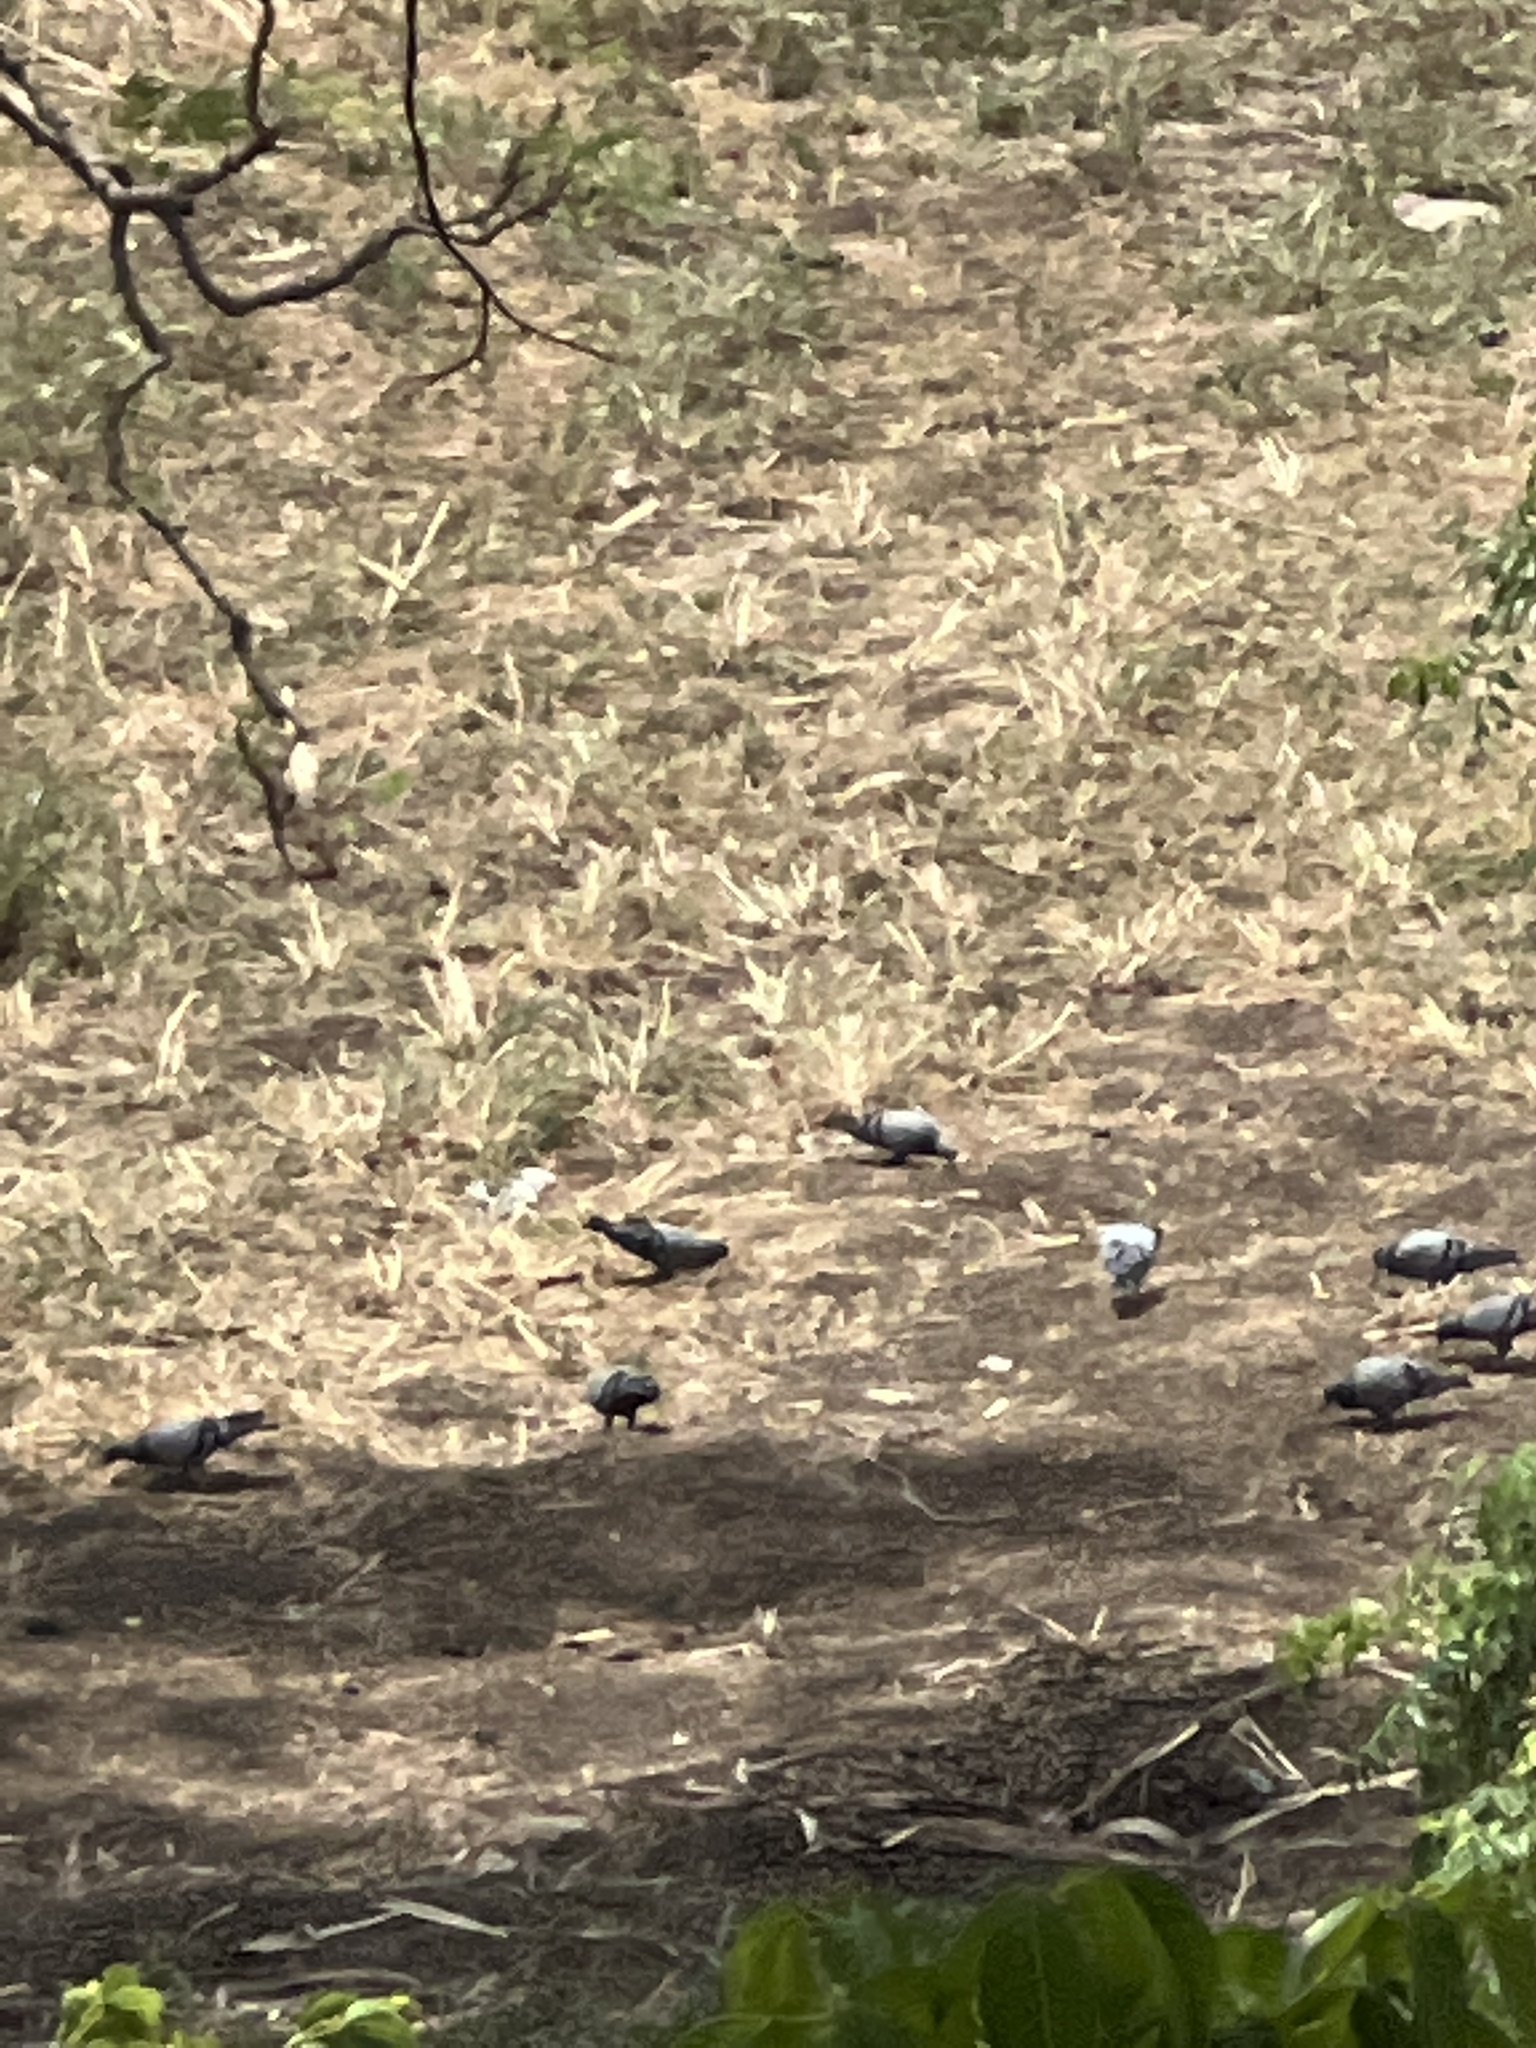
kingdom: Animalia
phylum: Chordata
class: Aves
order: Columbiformes
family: Columbidae
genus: Columba
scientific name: Columba livia
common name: Rock pigeon
